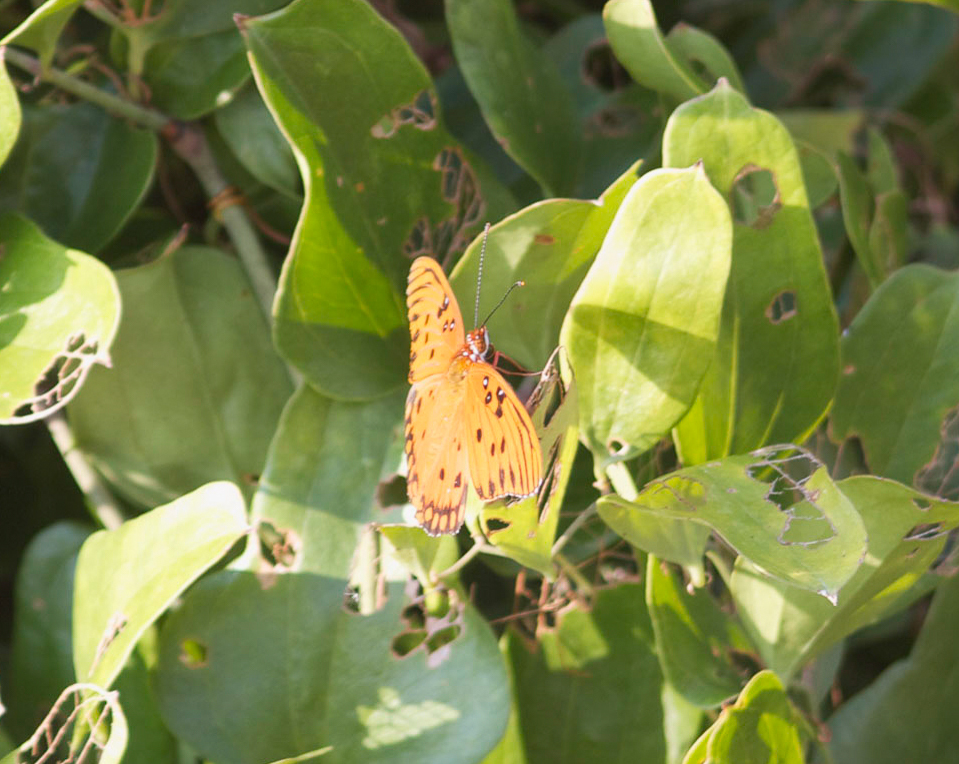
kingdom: Animalia
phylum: Arthropoda
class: Insecta
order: Lepidoptera
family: Nymphalidae
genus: Dione
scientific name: Dione vanillae
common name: Gulf fritillary
